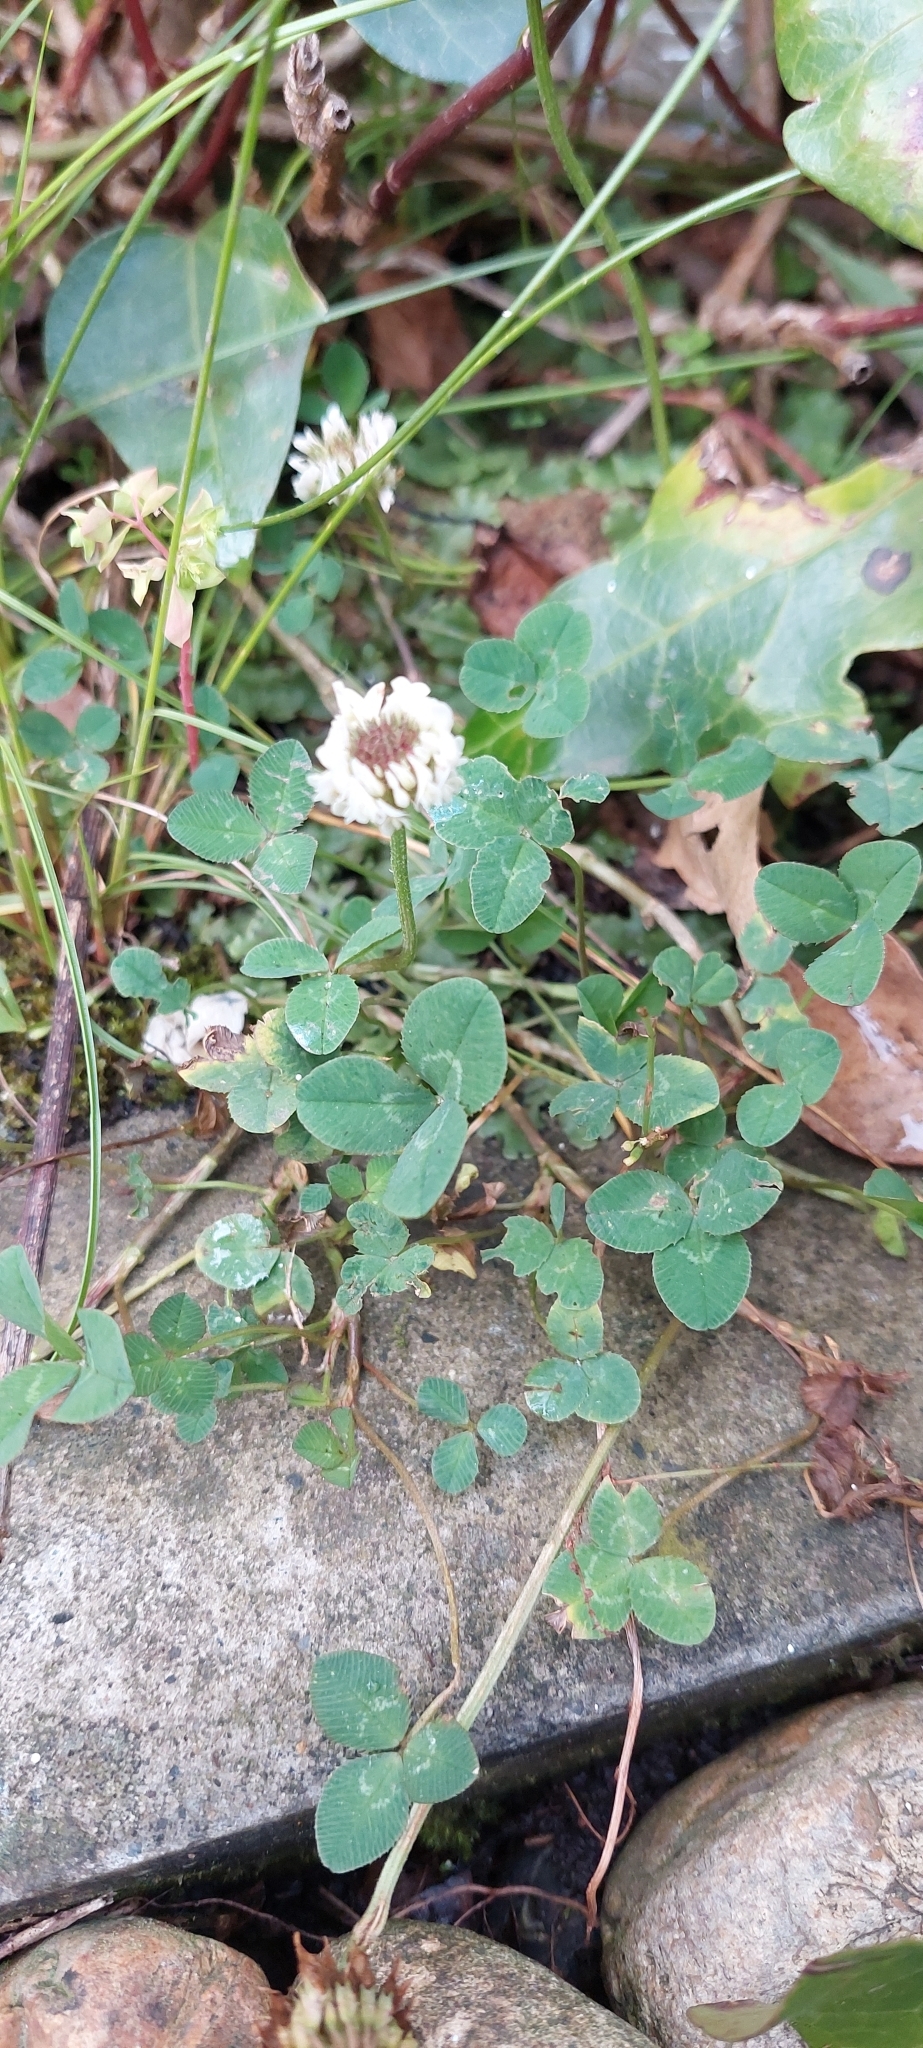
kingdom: Plantae
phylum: Tracheophyta
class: Magnoliopsida
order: Fabales
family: Fabaceae
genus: Trifolium
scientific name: Trifolium repens
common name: White clover
